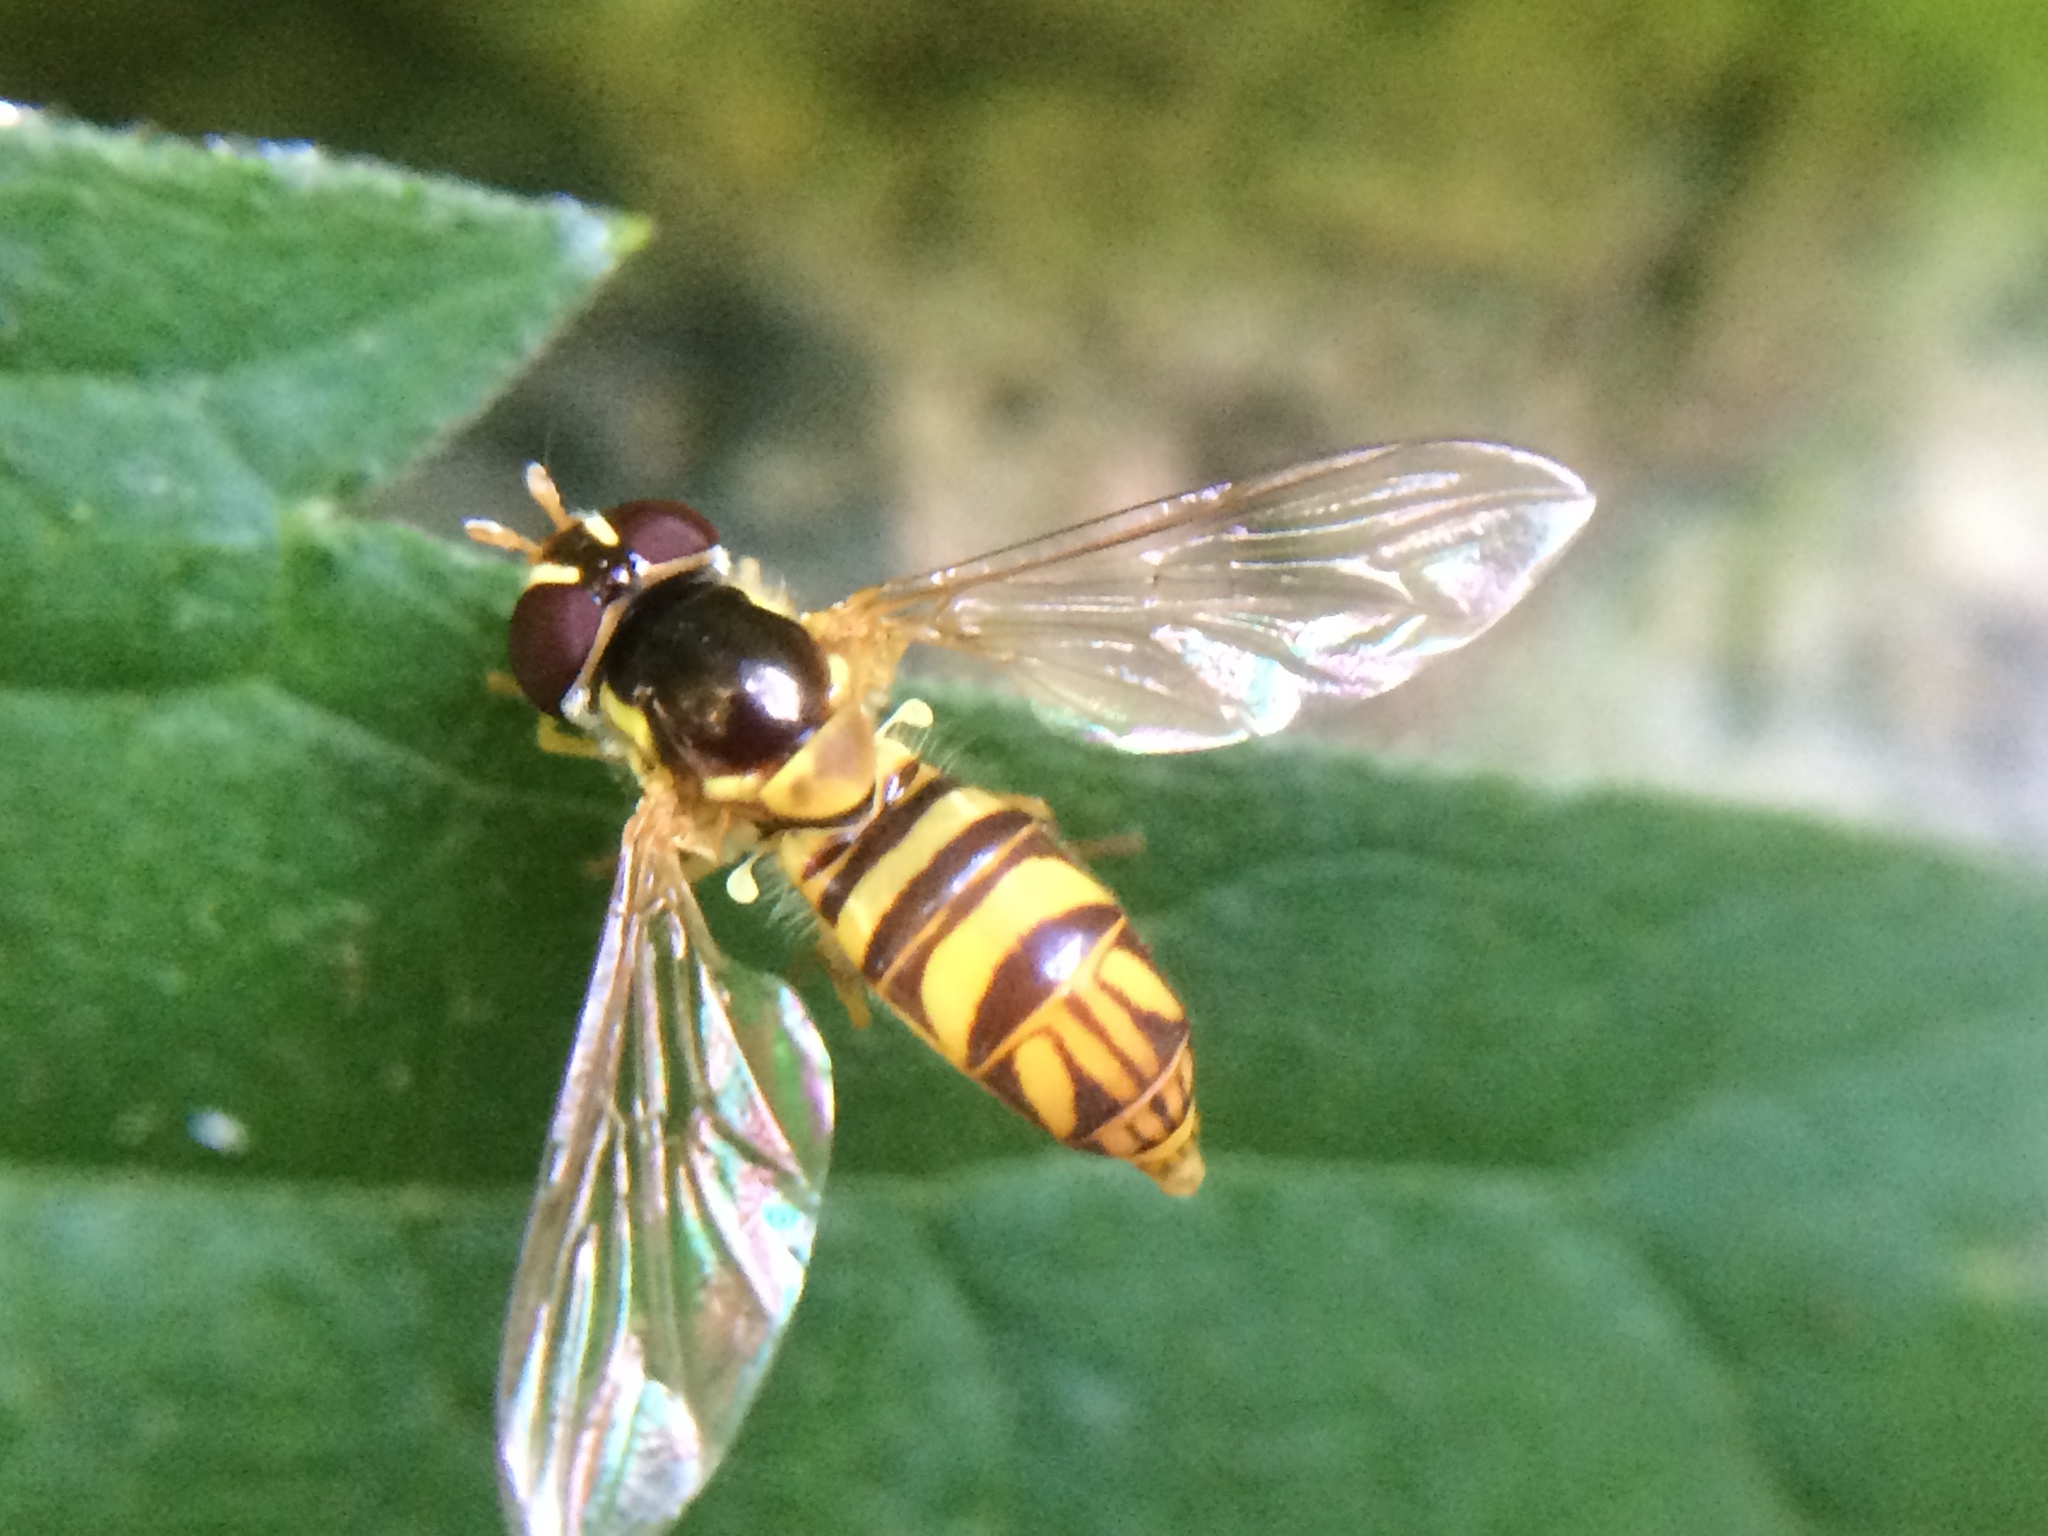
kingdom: Animalia
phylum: Arthropoda
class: Insecta
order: Diptera
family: Syrphidae
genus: Allograpta
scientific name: Allograpta obliqua
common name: Common oblique syrphid
